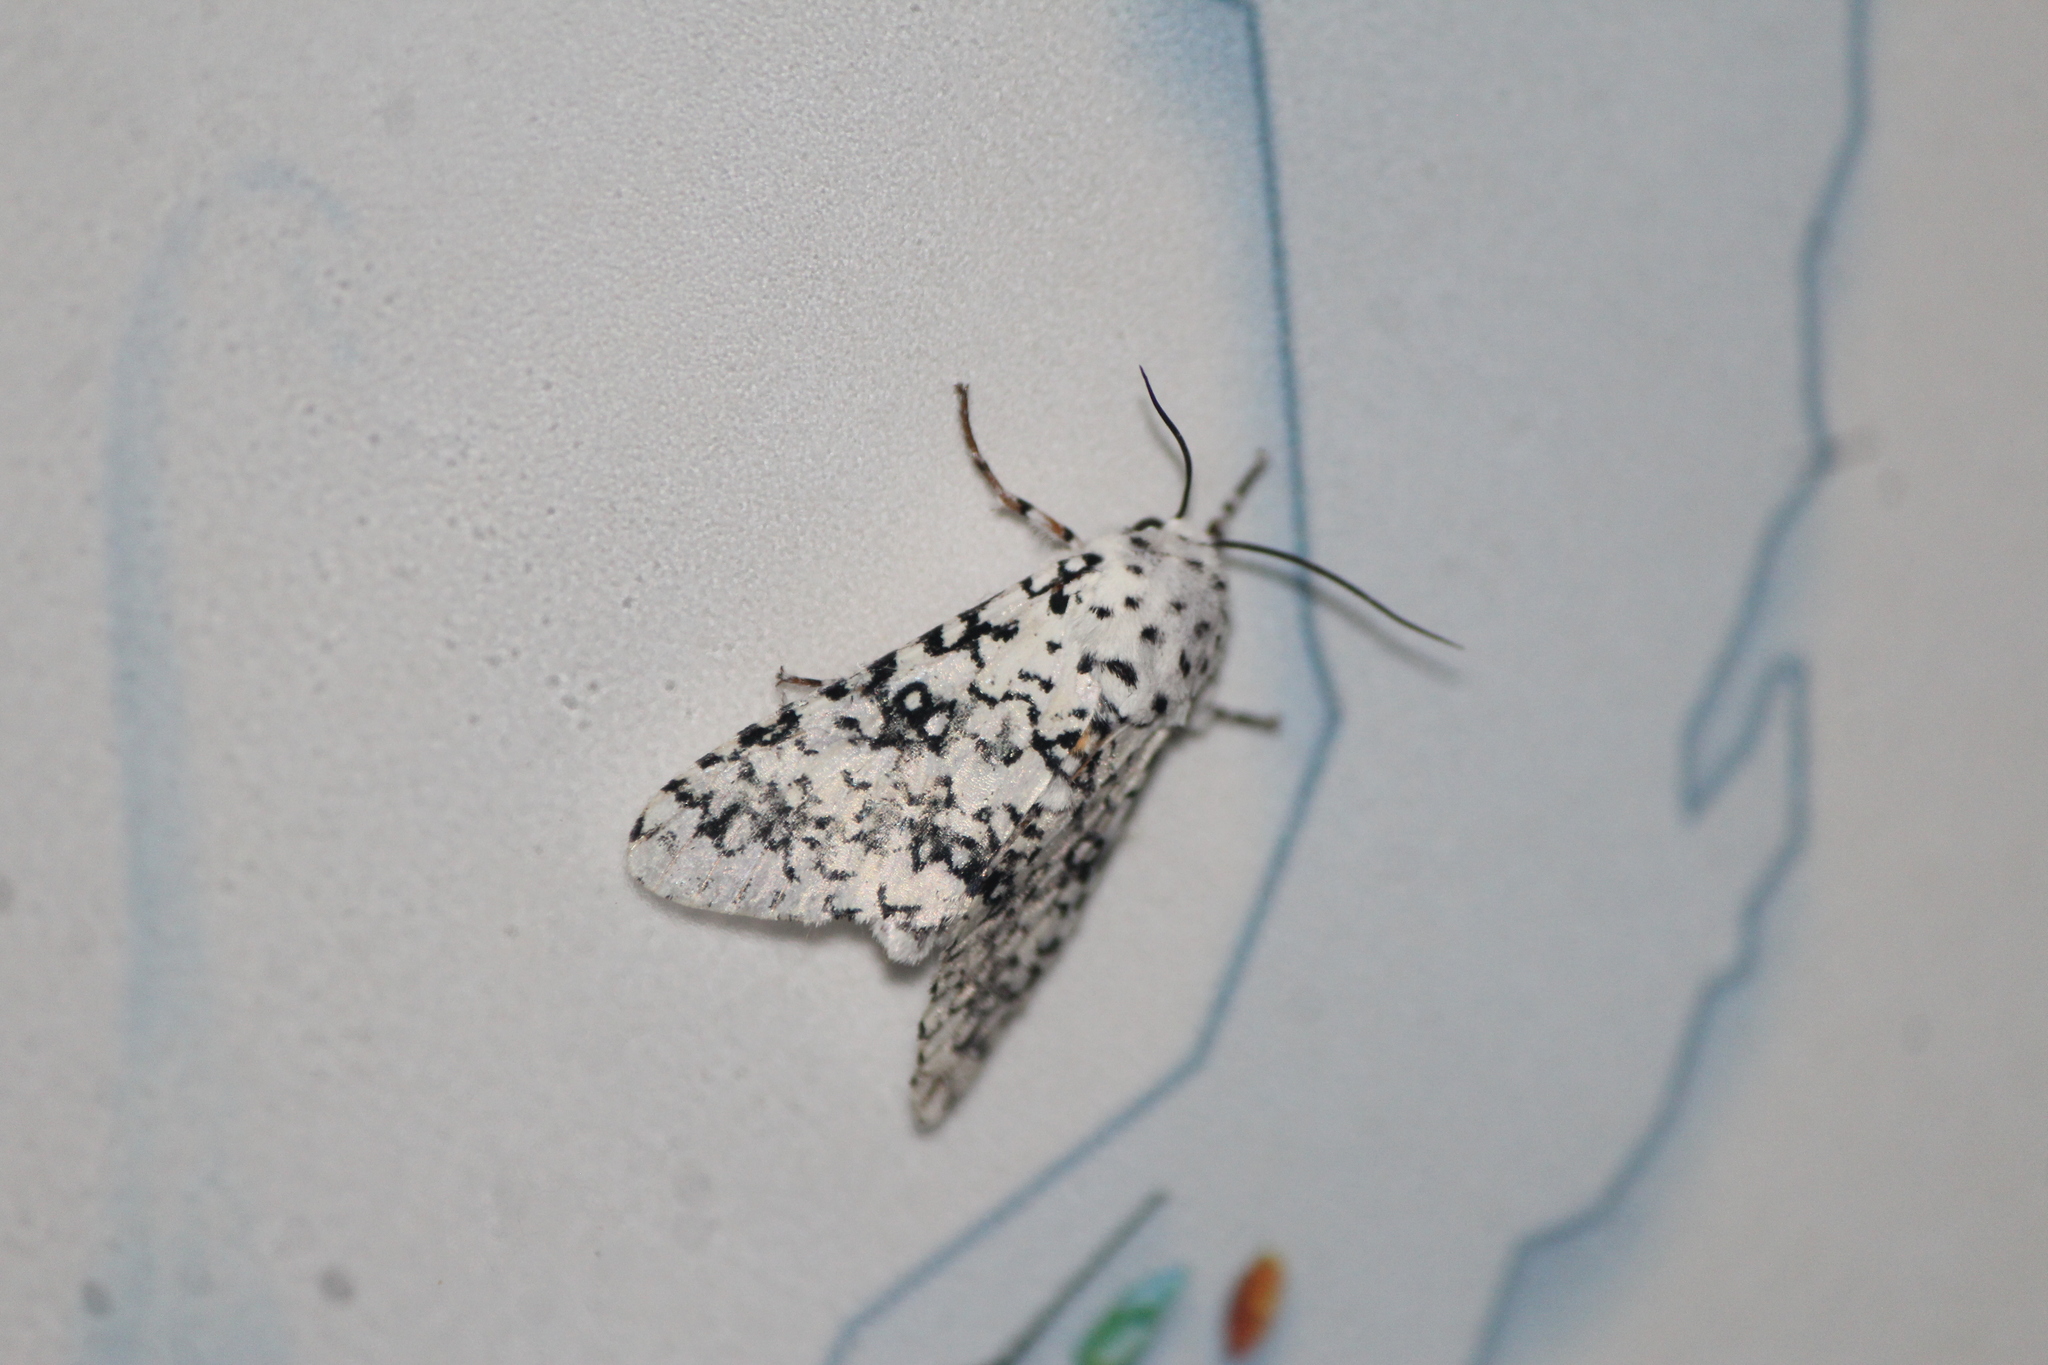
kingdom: Animalia
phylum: Arthropoda
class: Insecta
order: Lepidoptera
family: Noctuidae
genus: Lichnoptera
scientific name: Lichnoptera decora
